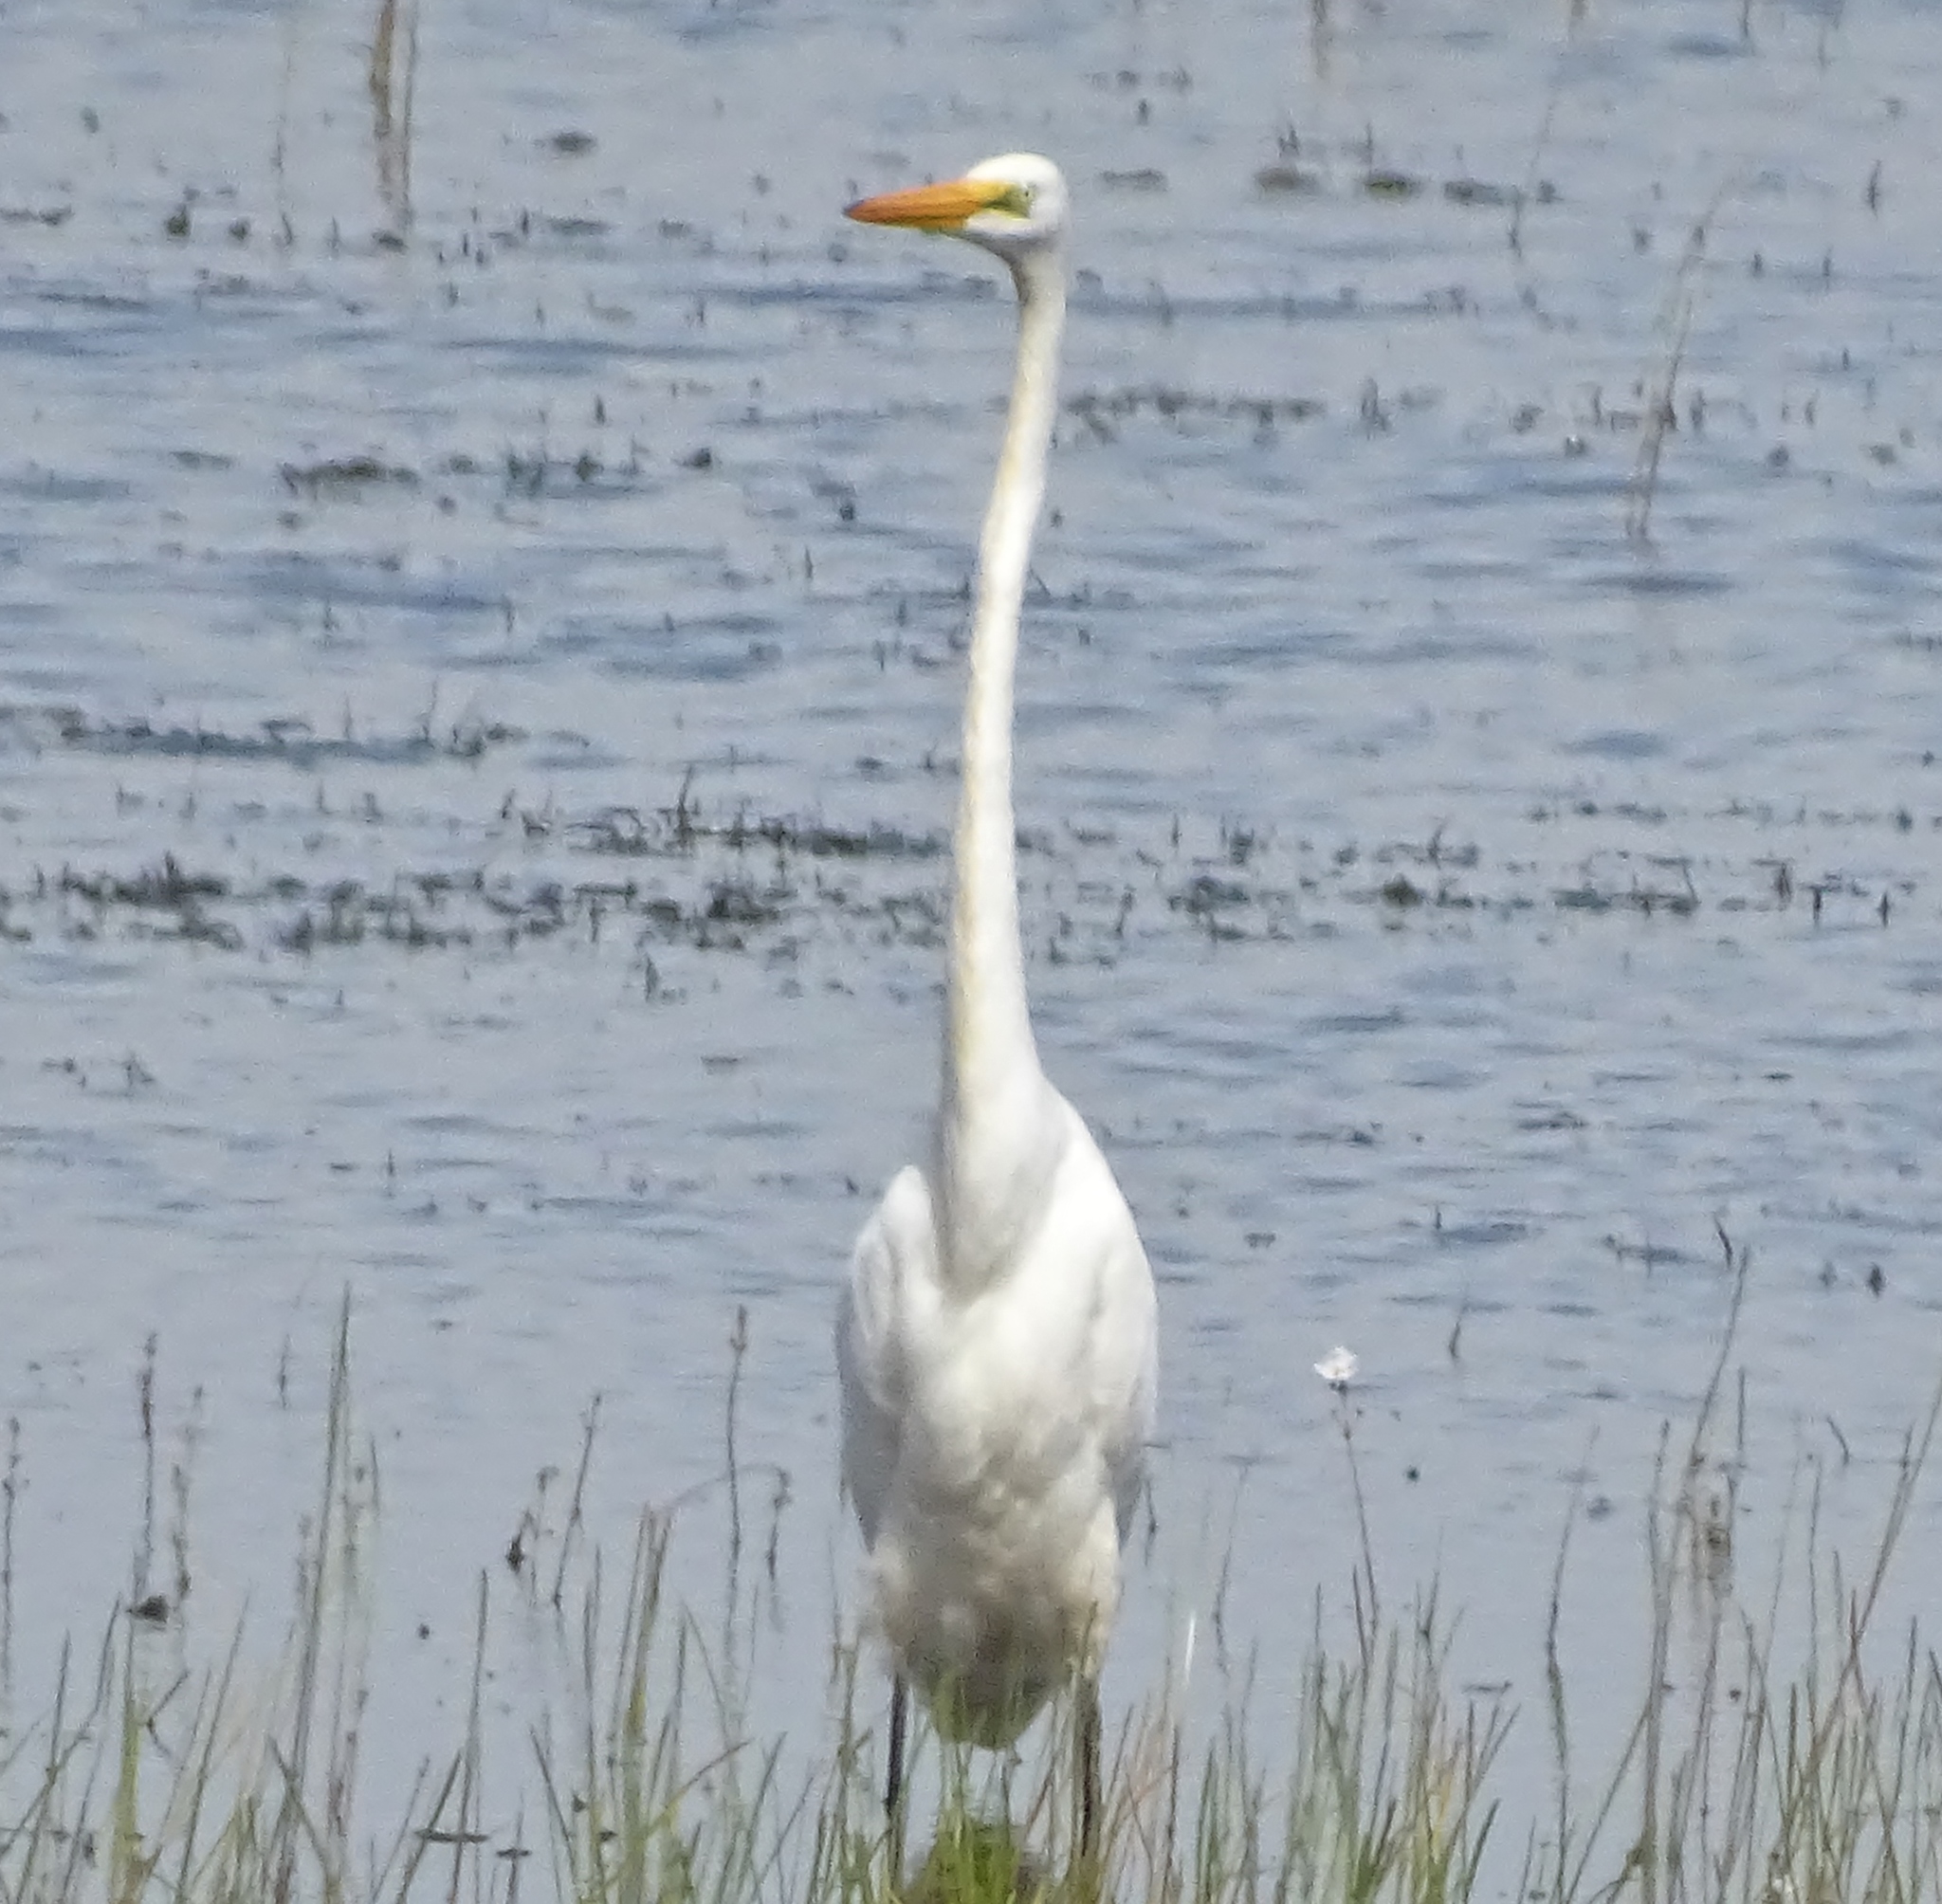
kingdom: Animalia
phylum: Chordata
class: Aves
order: Pelecaniformes
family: Ardeidae
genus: Ardea
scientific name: Ardea alba
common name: Great egret
